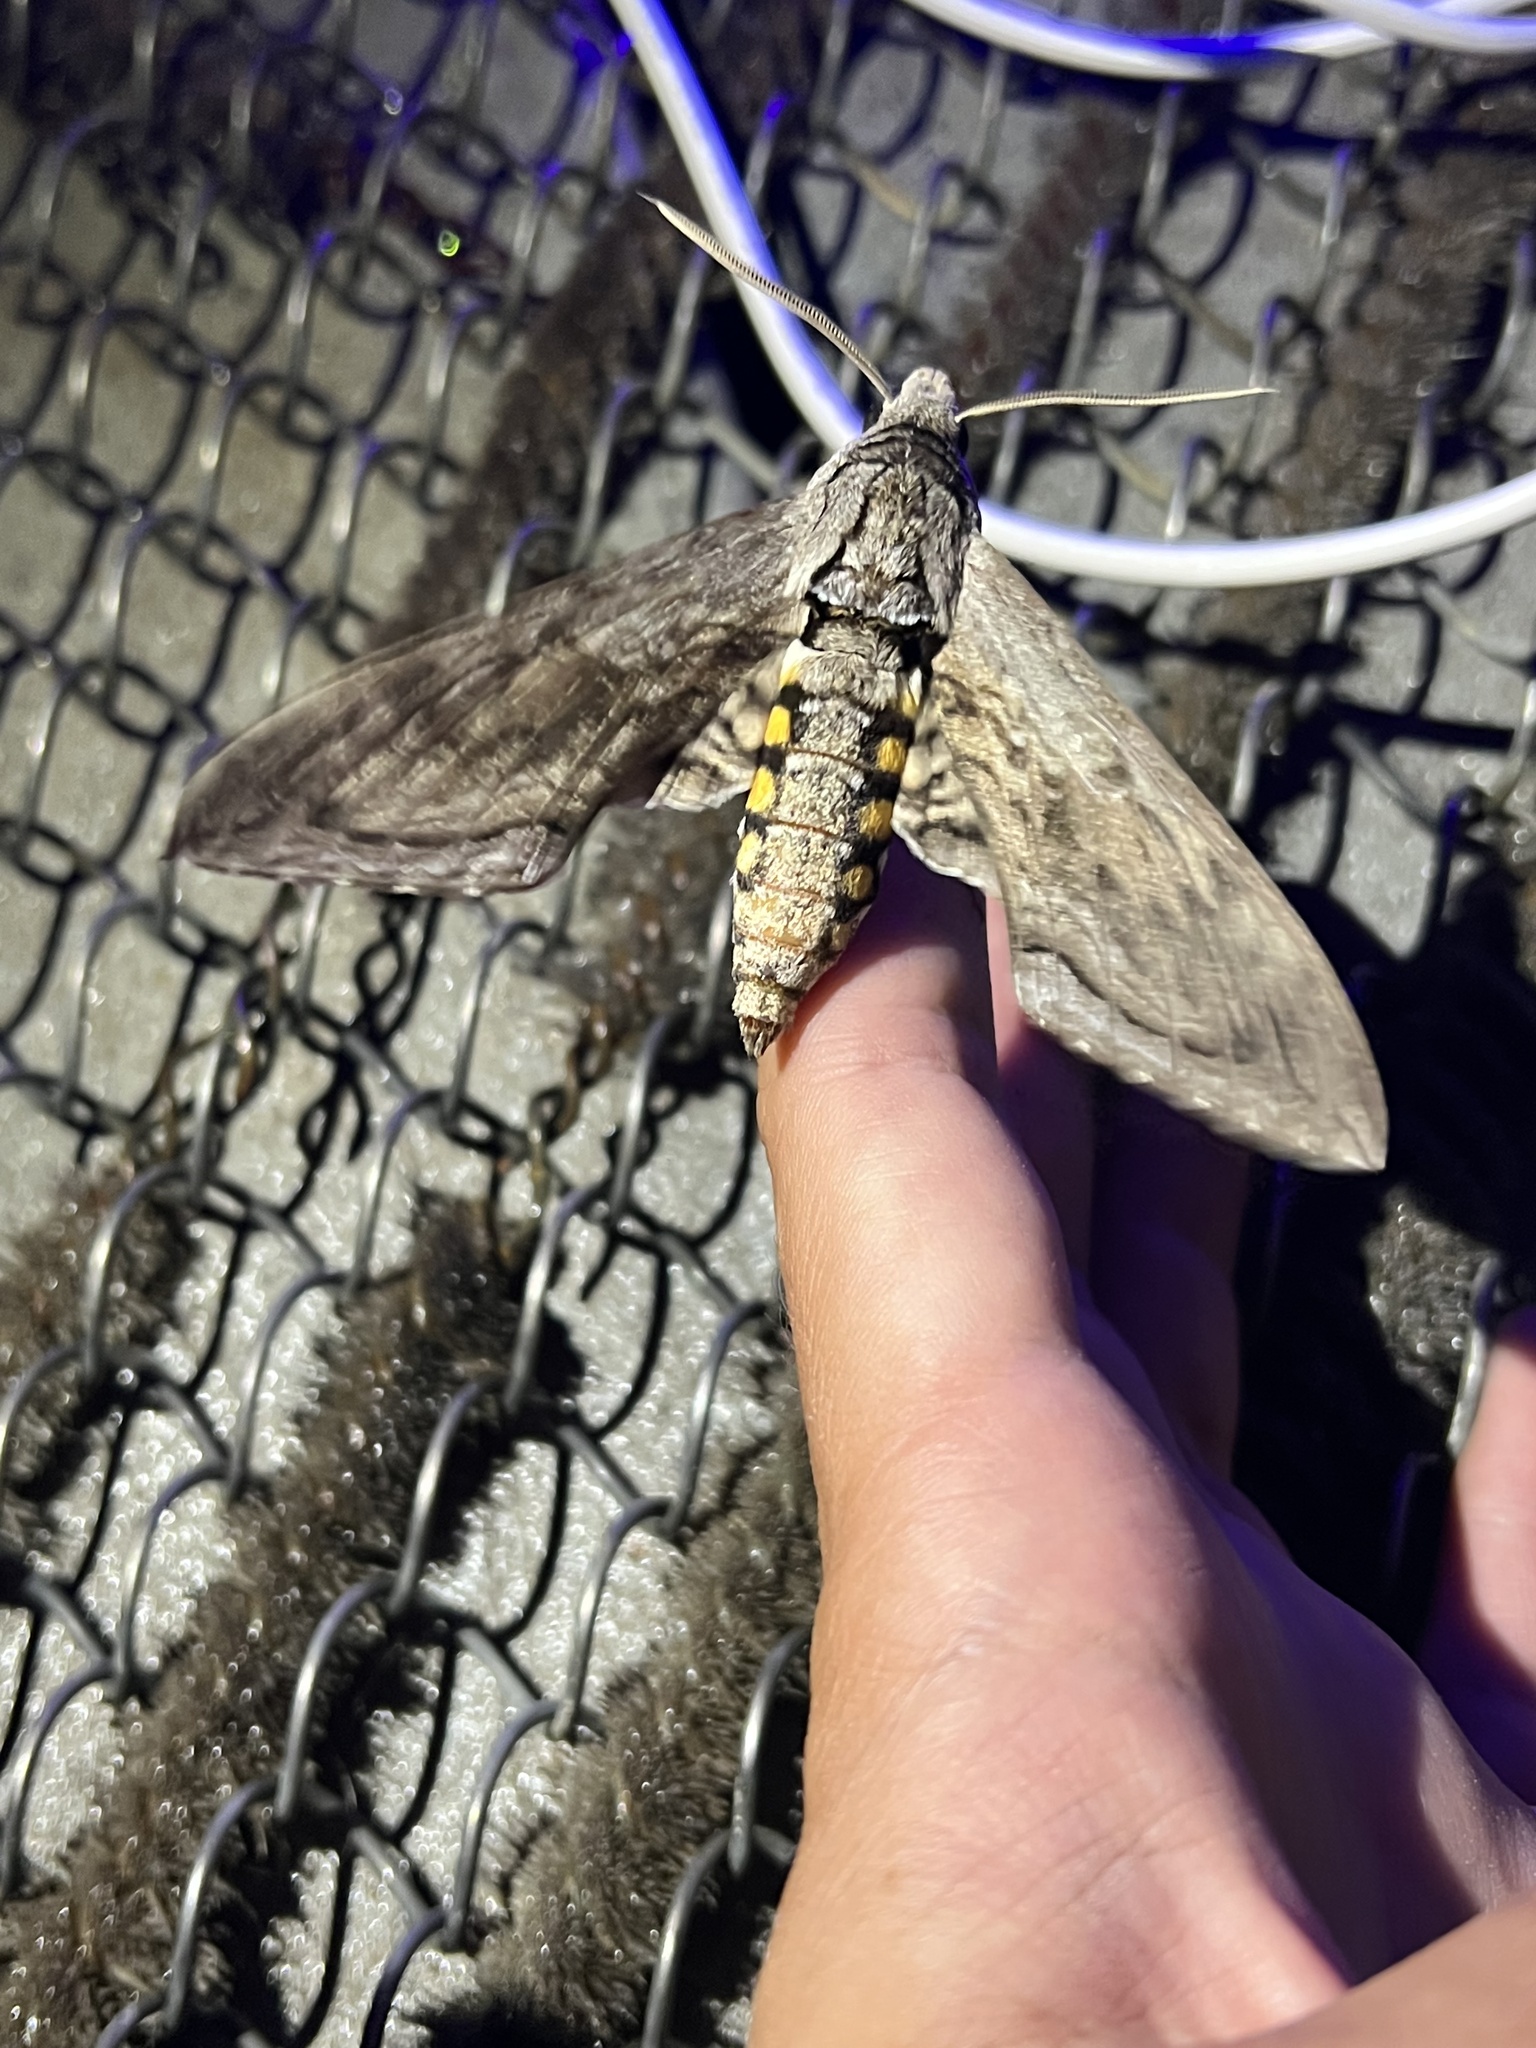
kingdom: Animalia
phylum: Arthropoda
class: Insecta
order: Lepidoptera
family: Sphingidae
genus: Manduca
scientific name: Manduca quinquemaculatus
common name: Five-spotted hawk-moth
